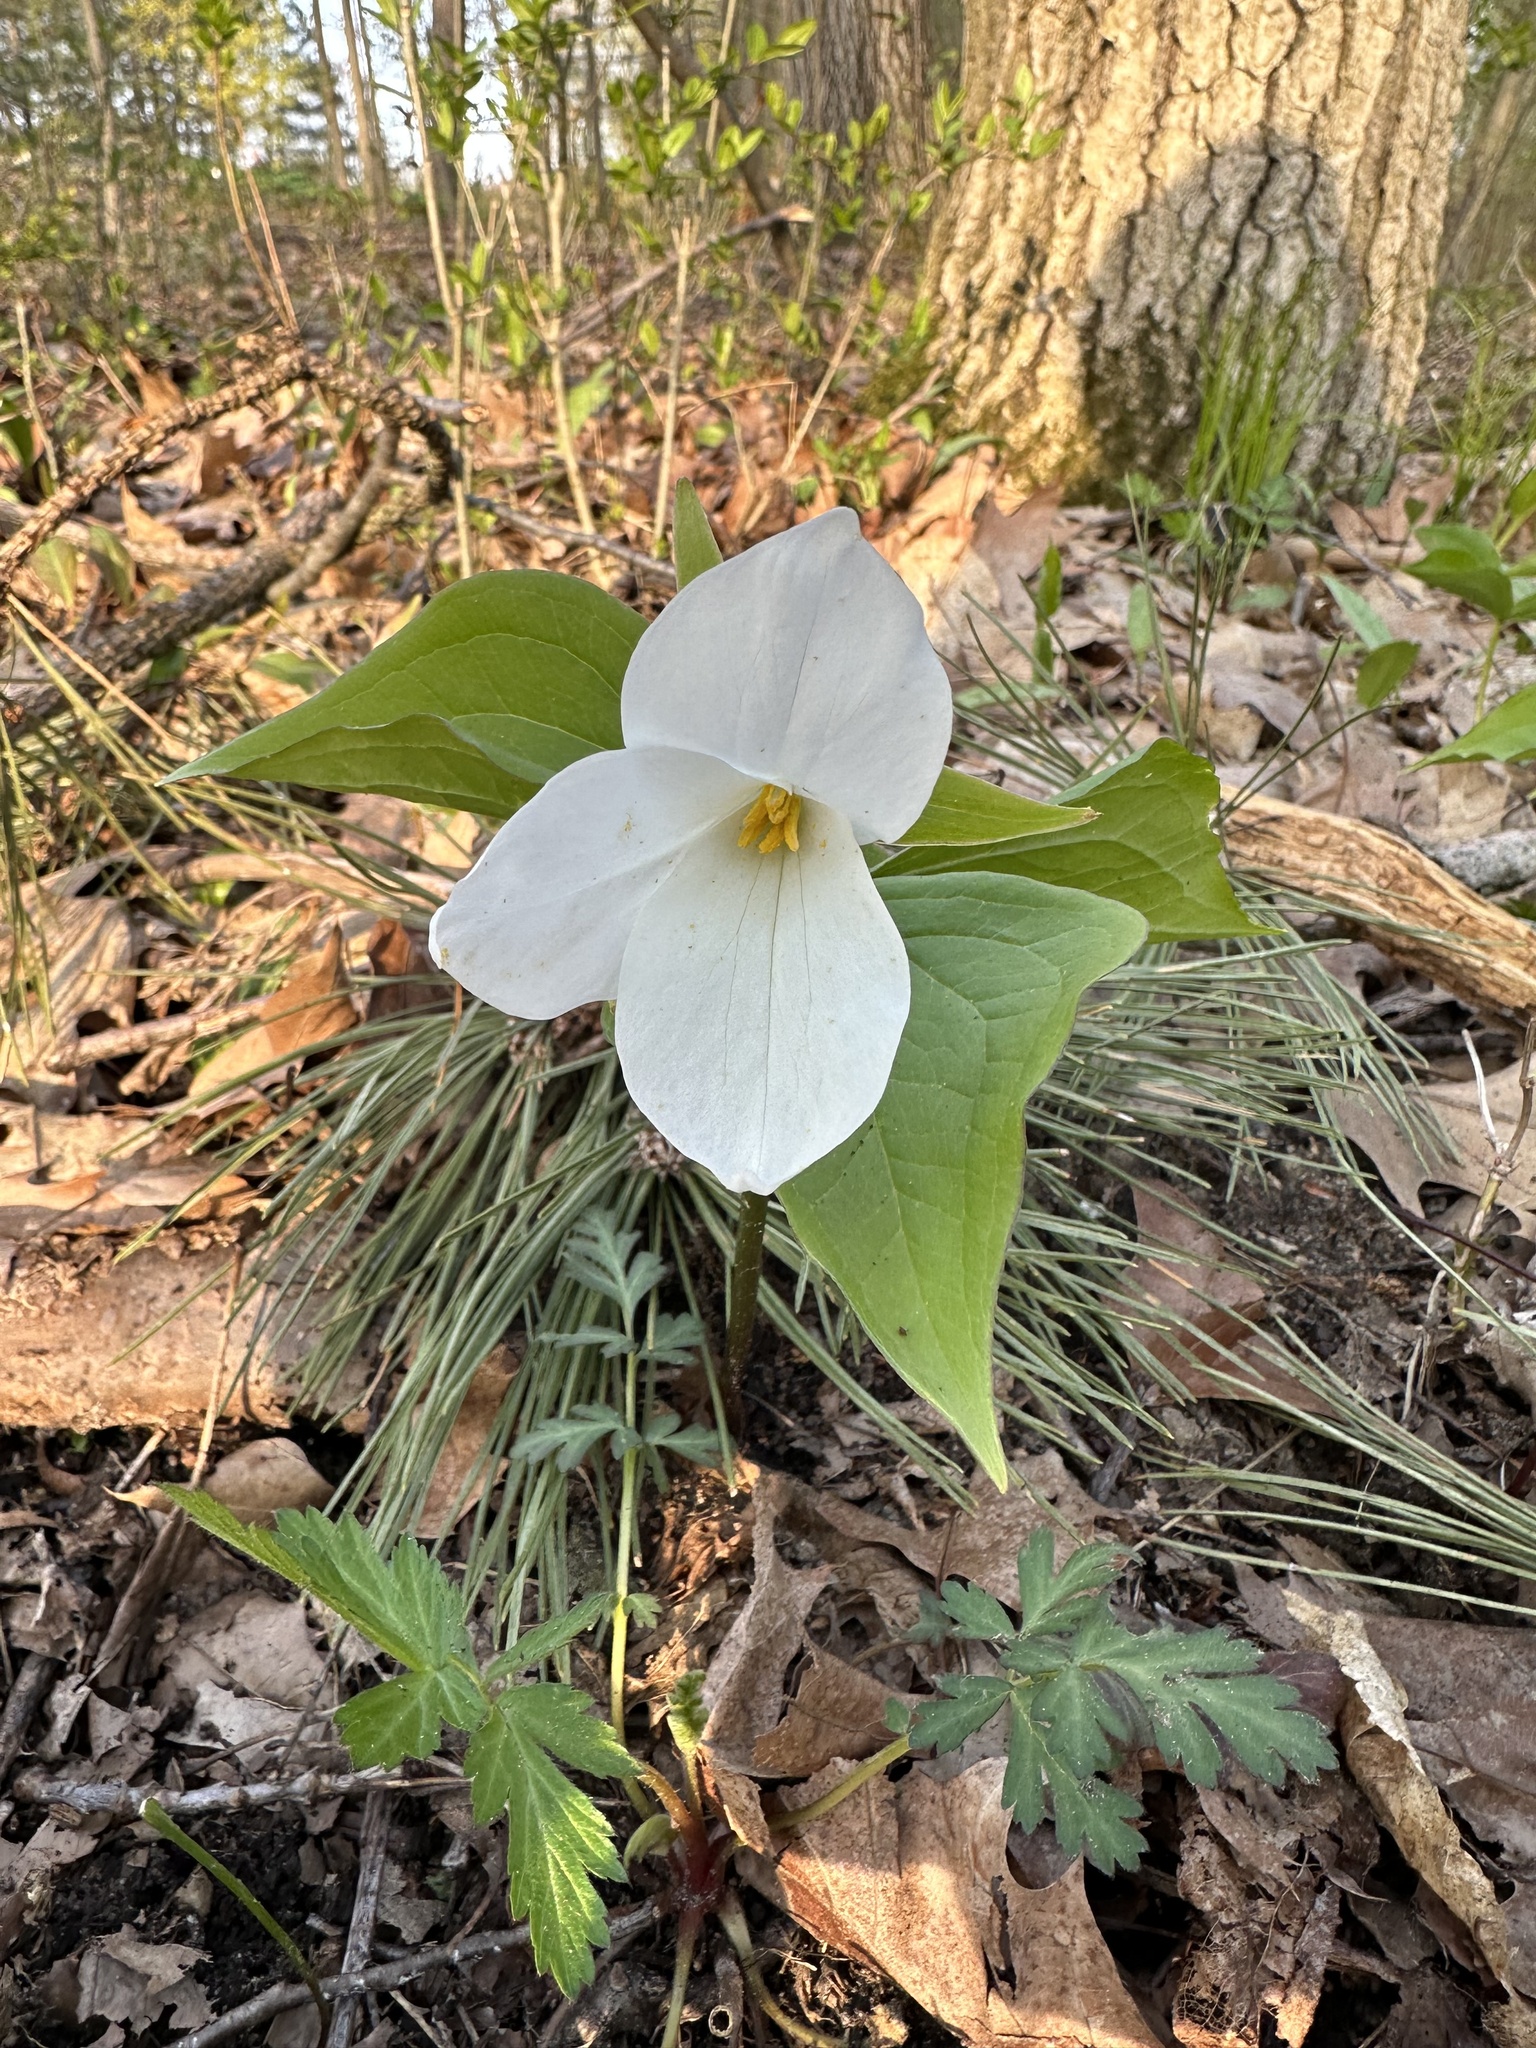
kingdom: Plantae
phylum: Tracheophyta
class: Liliopsida
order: Liliales
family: Melanthiaceae
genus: Trillium
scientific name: Trillium grandiflorum
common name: Great white trillium
